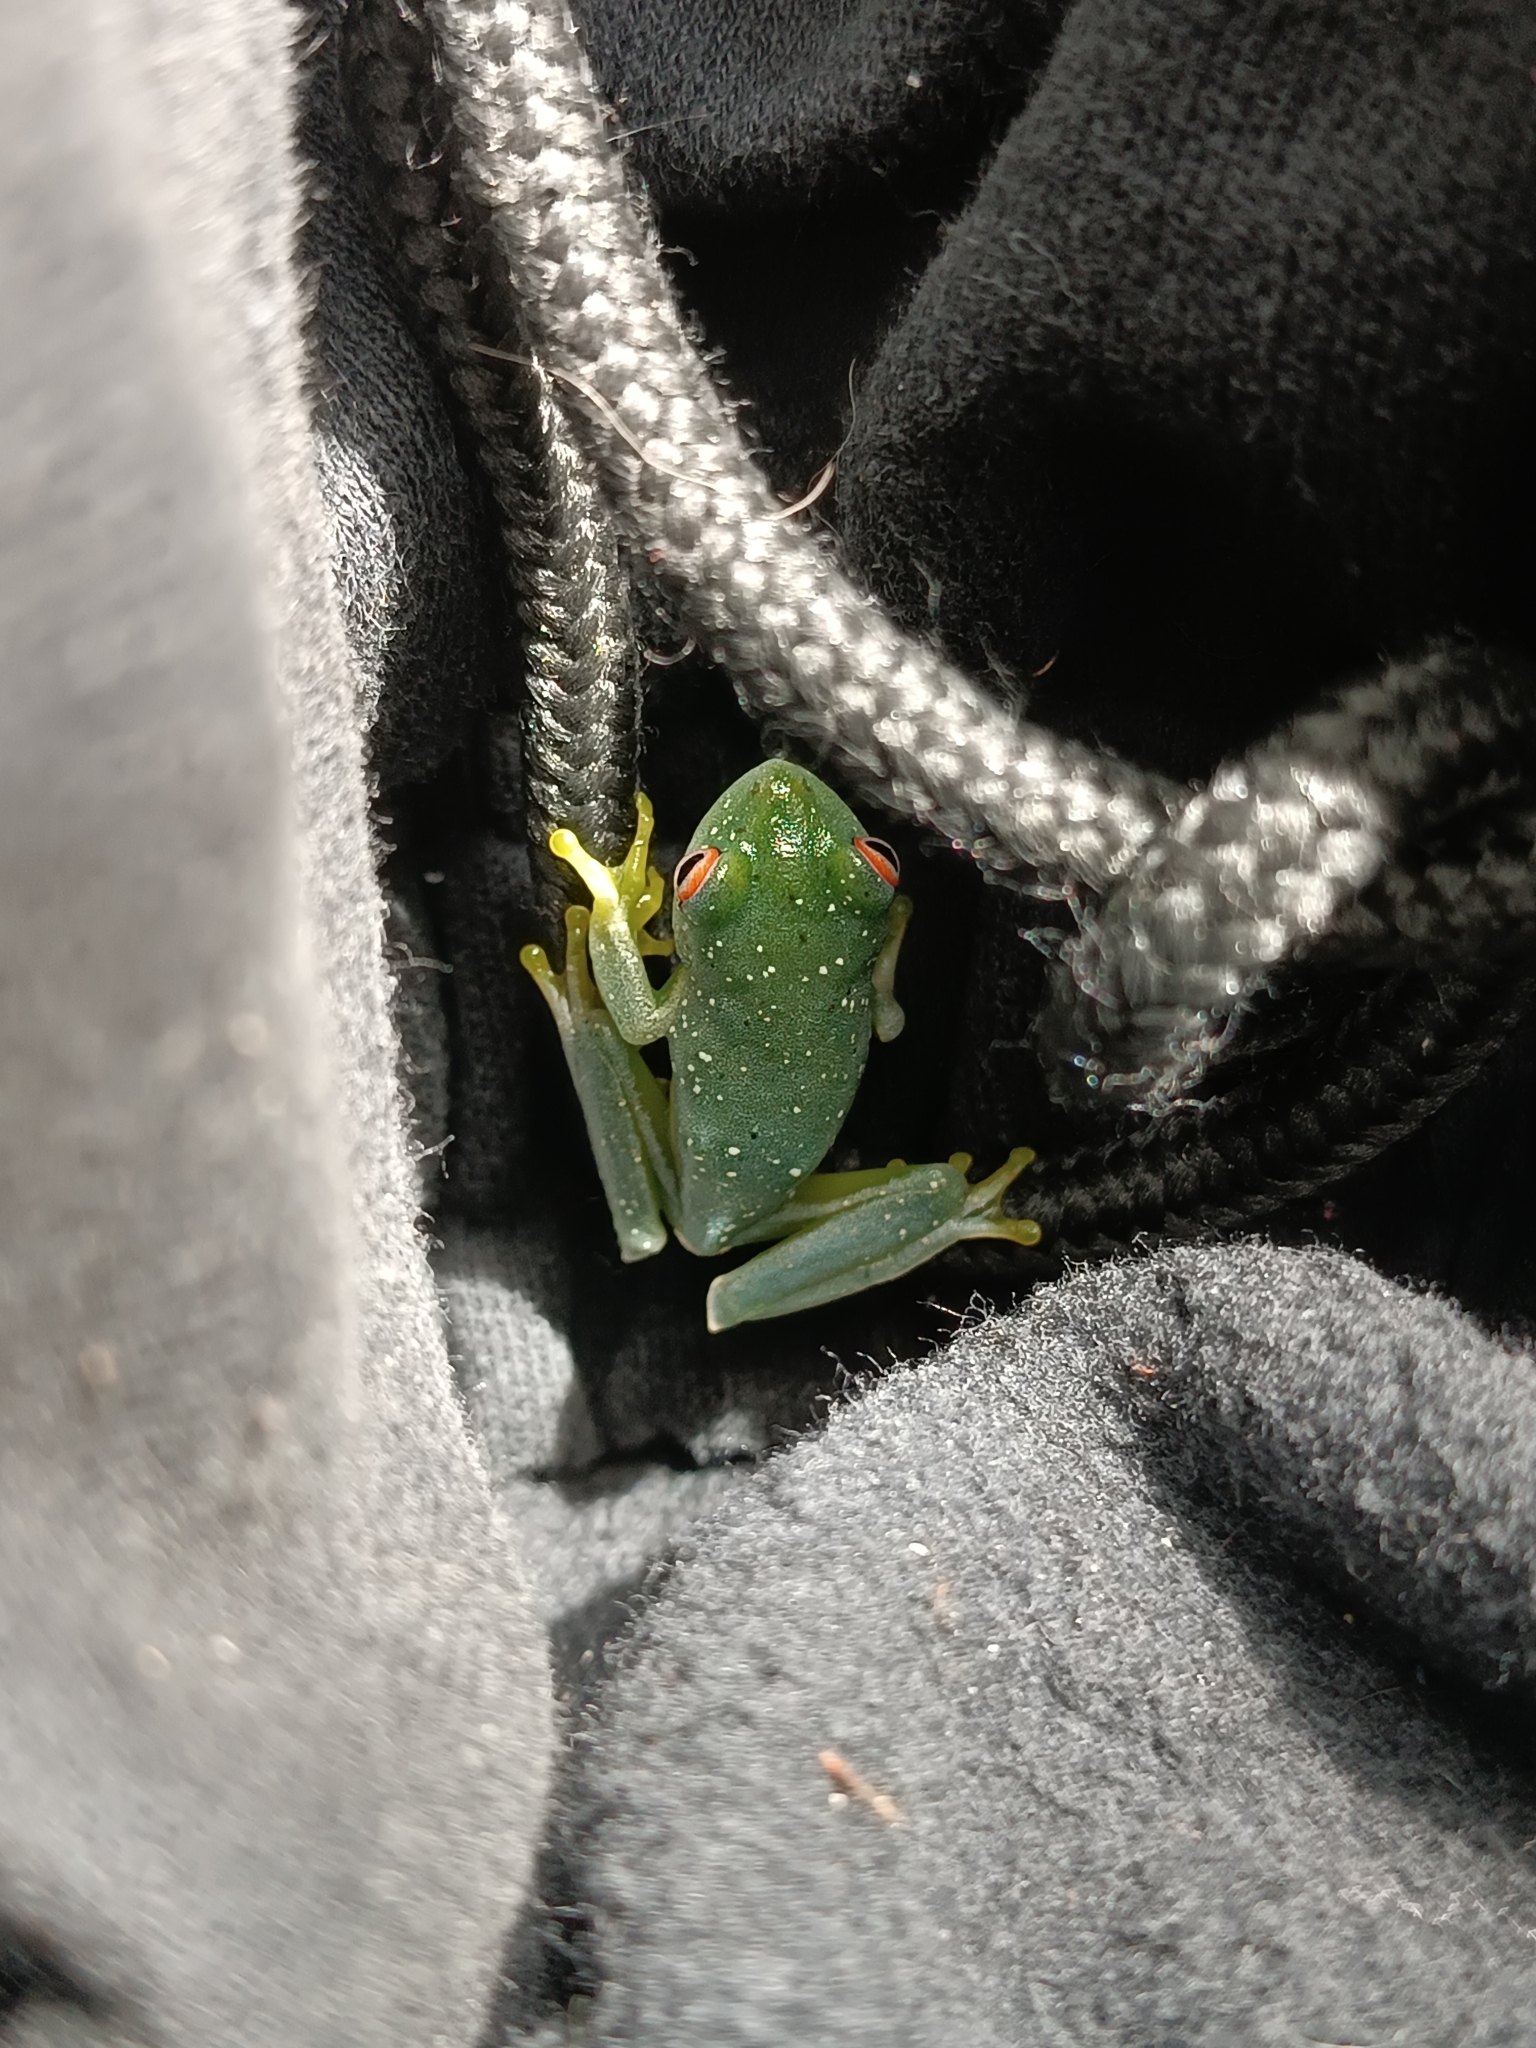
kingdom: Animalia
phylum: Chordata
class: Amphibia
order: Anura
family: Hylidae
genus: Aplastodiscus
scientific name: Aplastodiscus albosignatus
